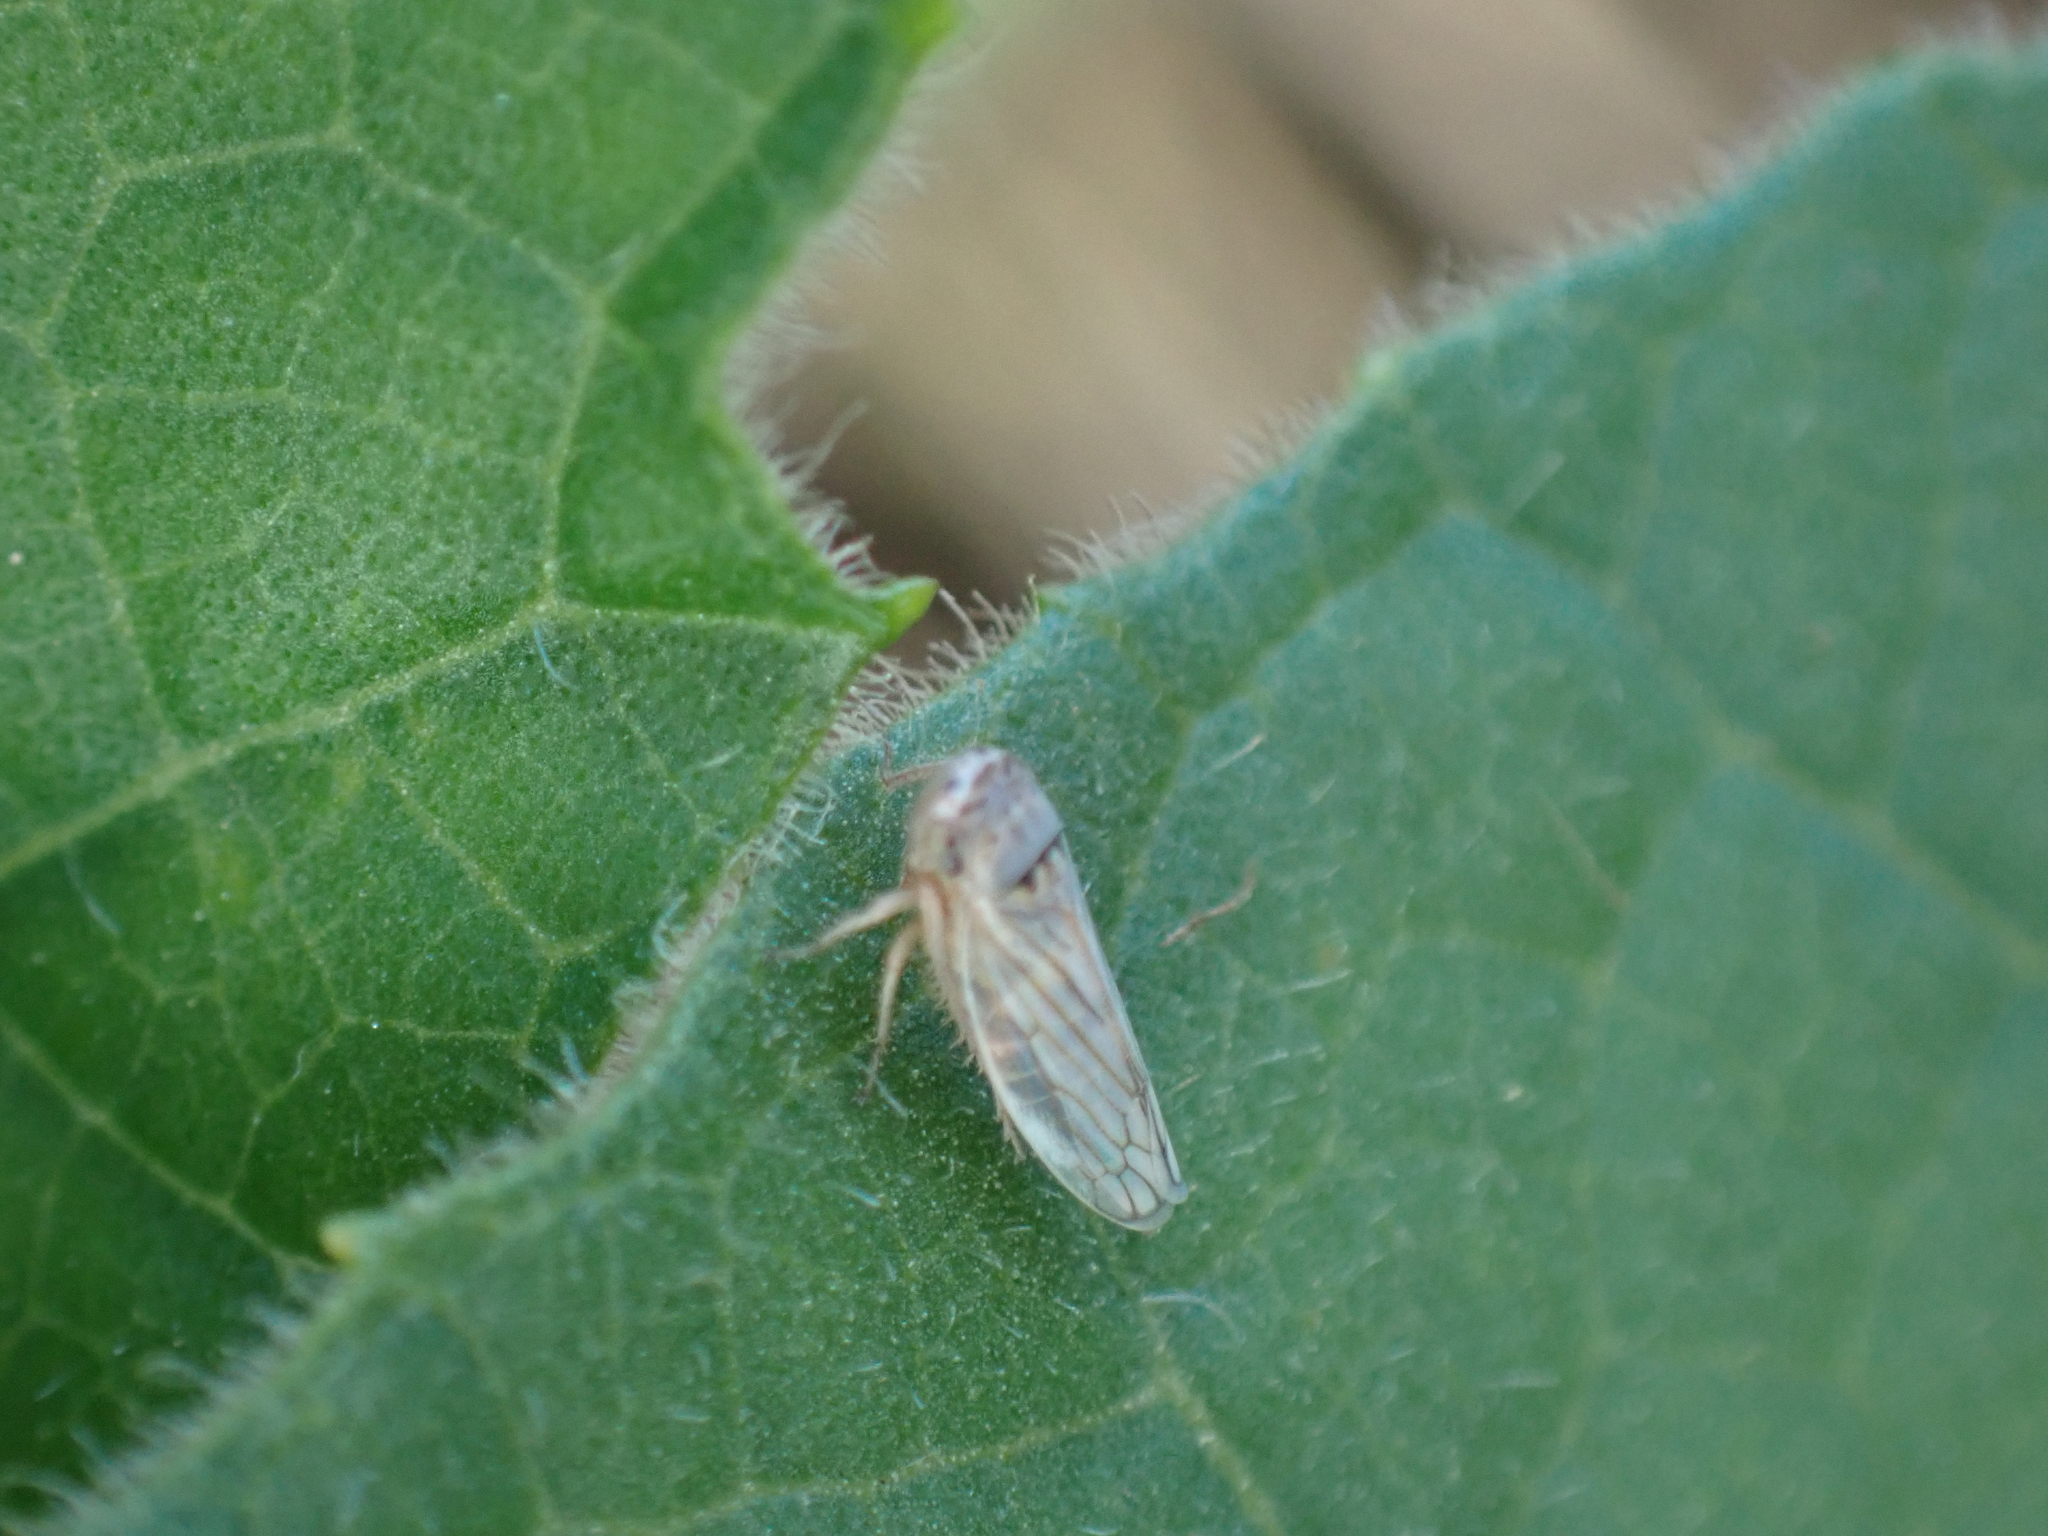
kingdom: Animalia
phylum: Arthropoda
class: Insecta
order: Hemiptera
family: Cicadellidae
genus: Exitianus
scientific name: Exitianus exitiosus
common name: Gray lawn leafhopper
